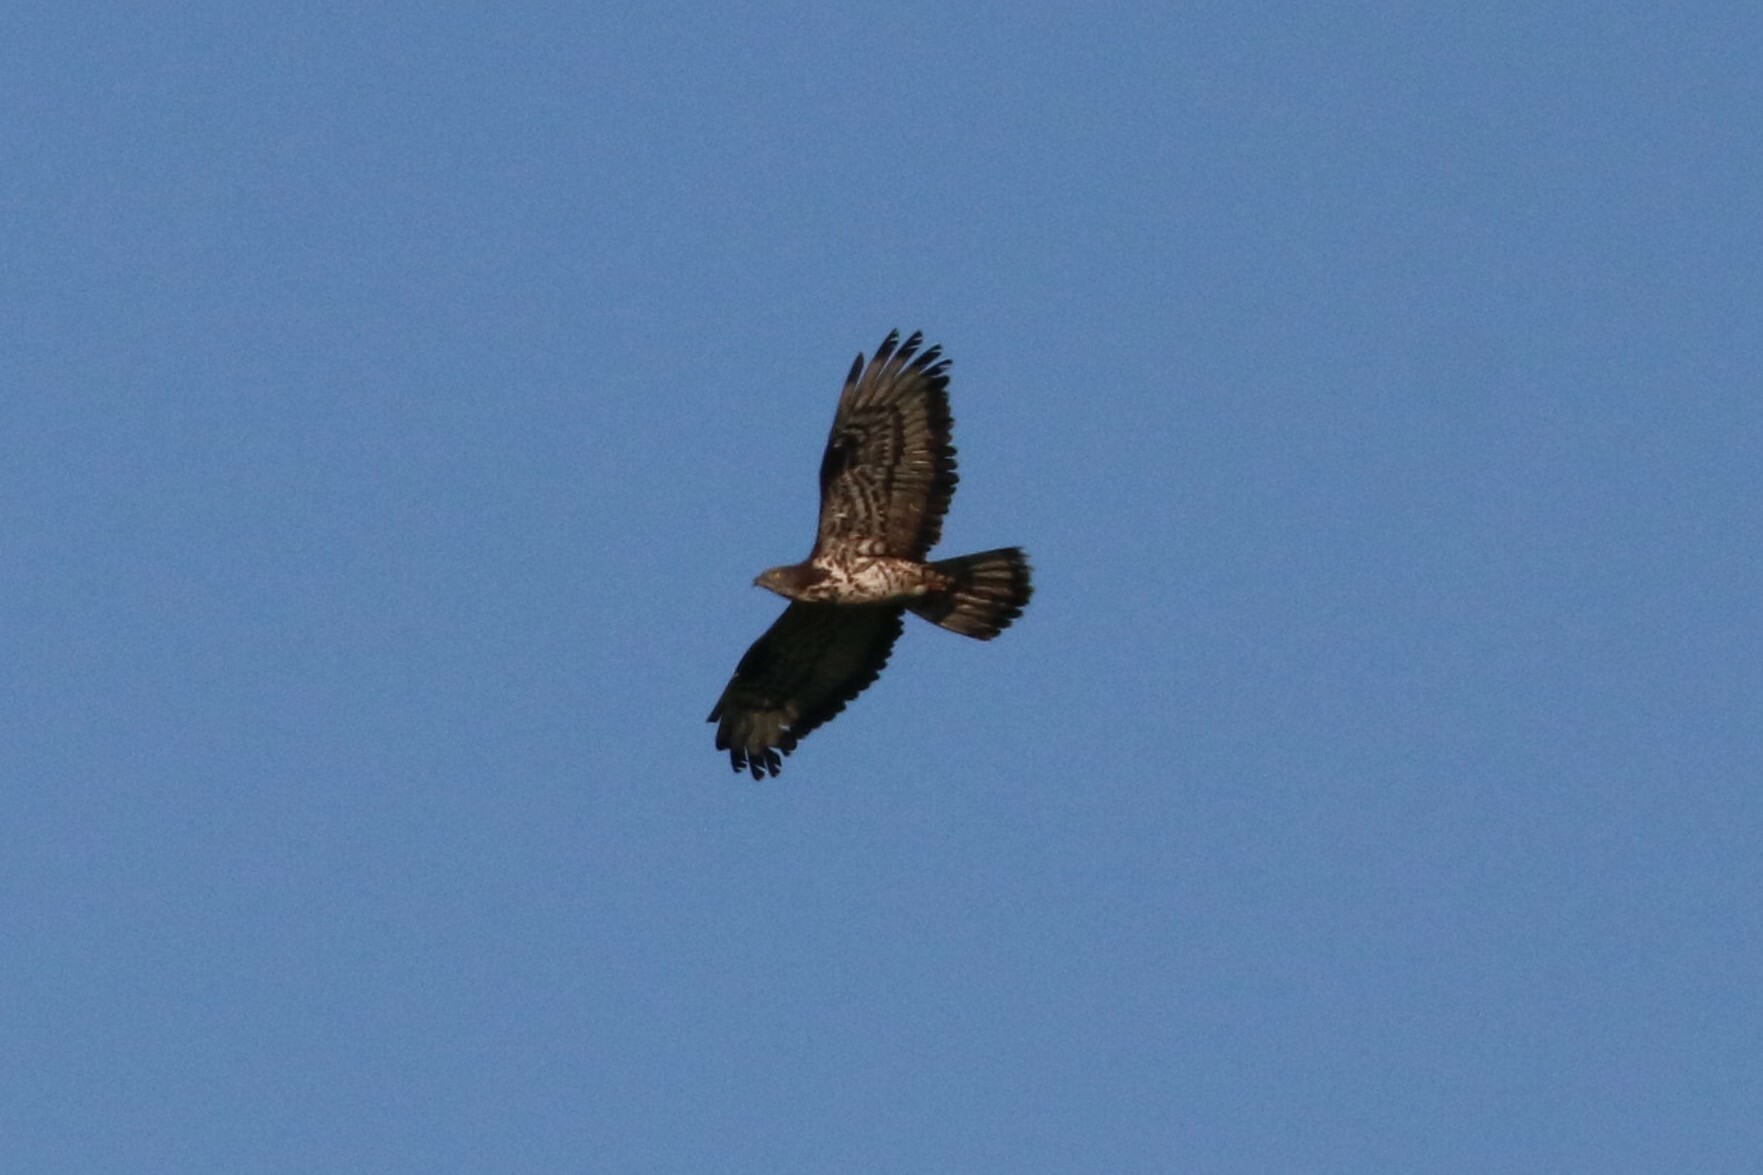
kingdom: Animalia
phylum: Chordata
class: Aves
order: Accipitriformes
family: Accipitridae
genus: Pernis
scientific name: Pernis apivorus
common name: European honey buzzard
